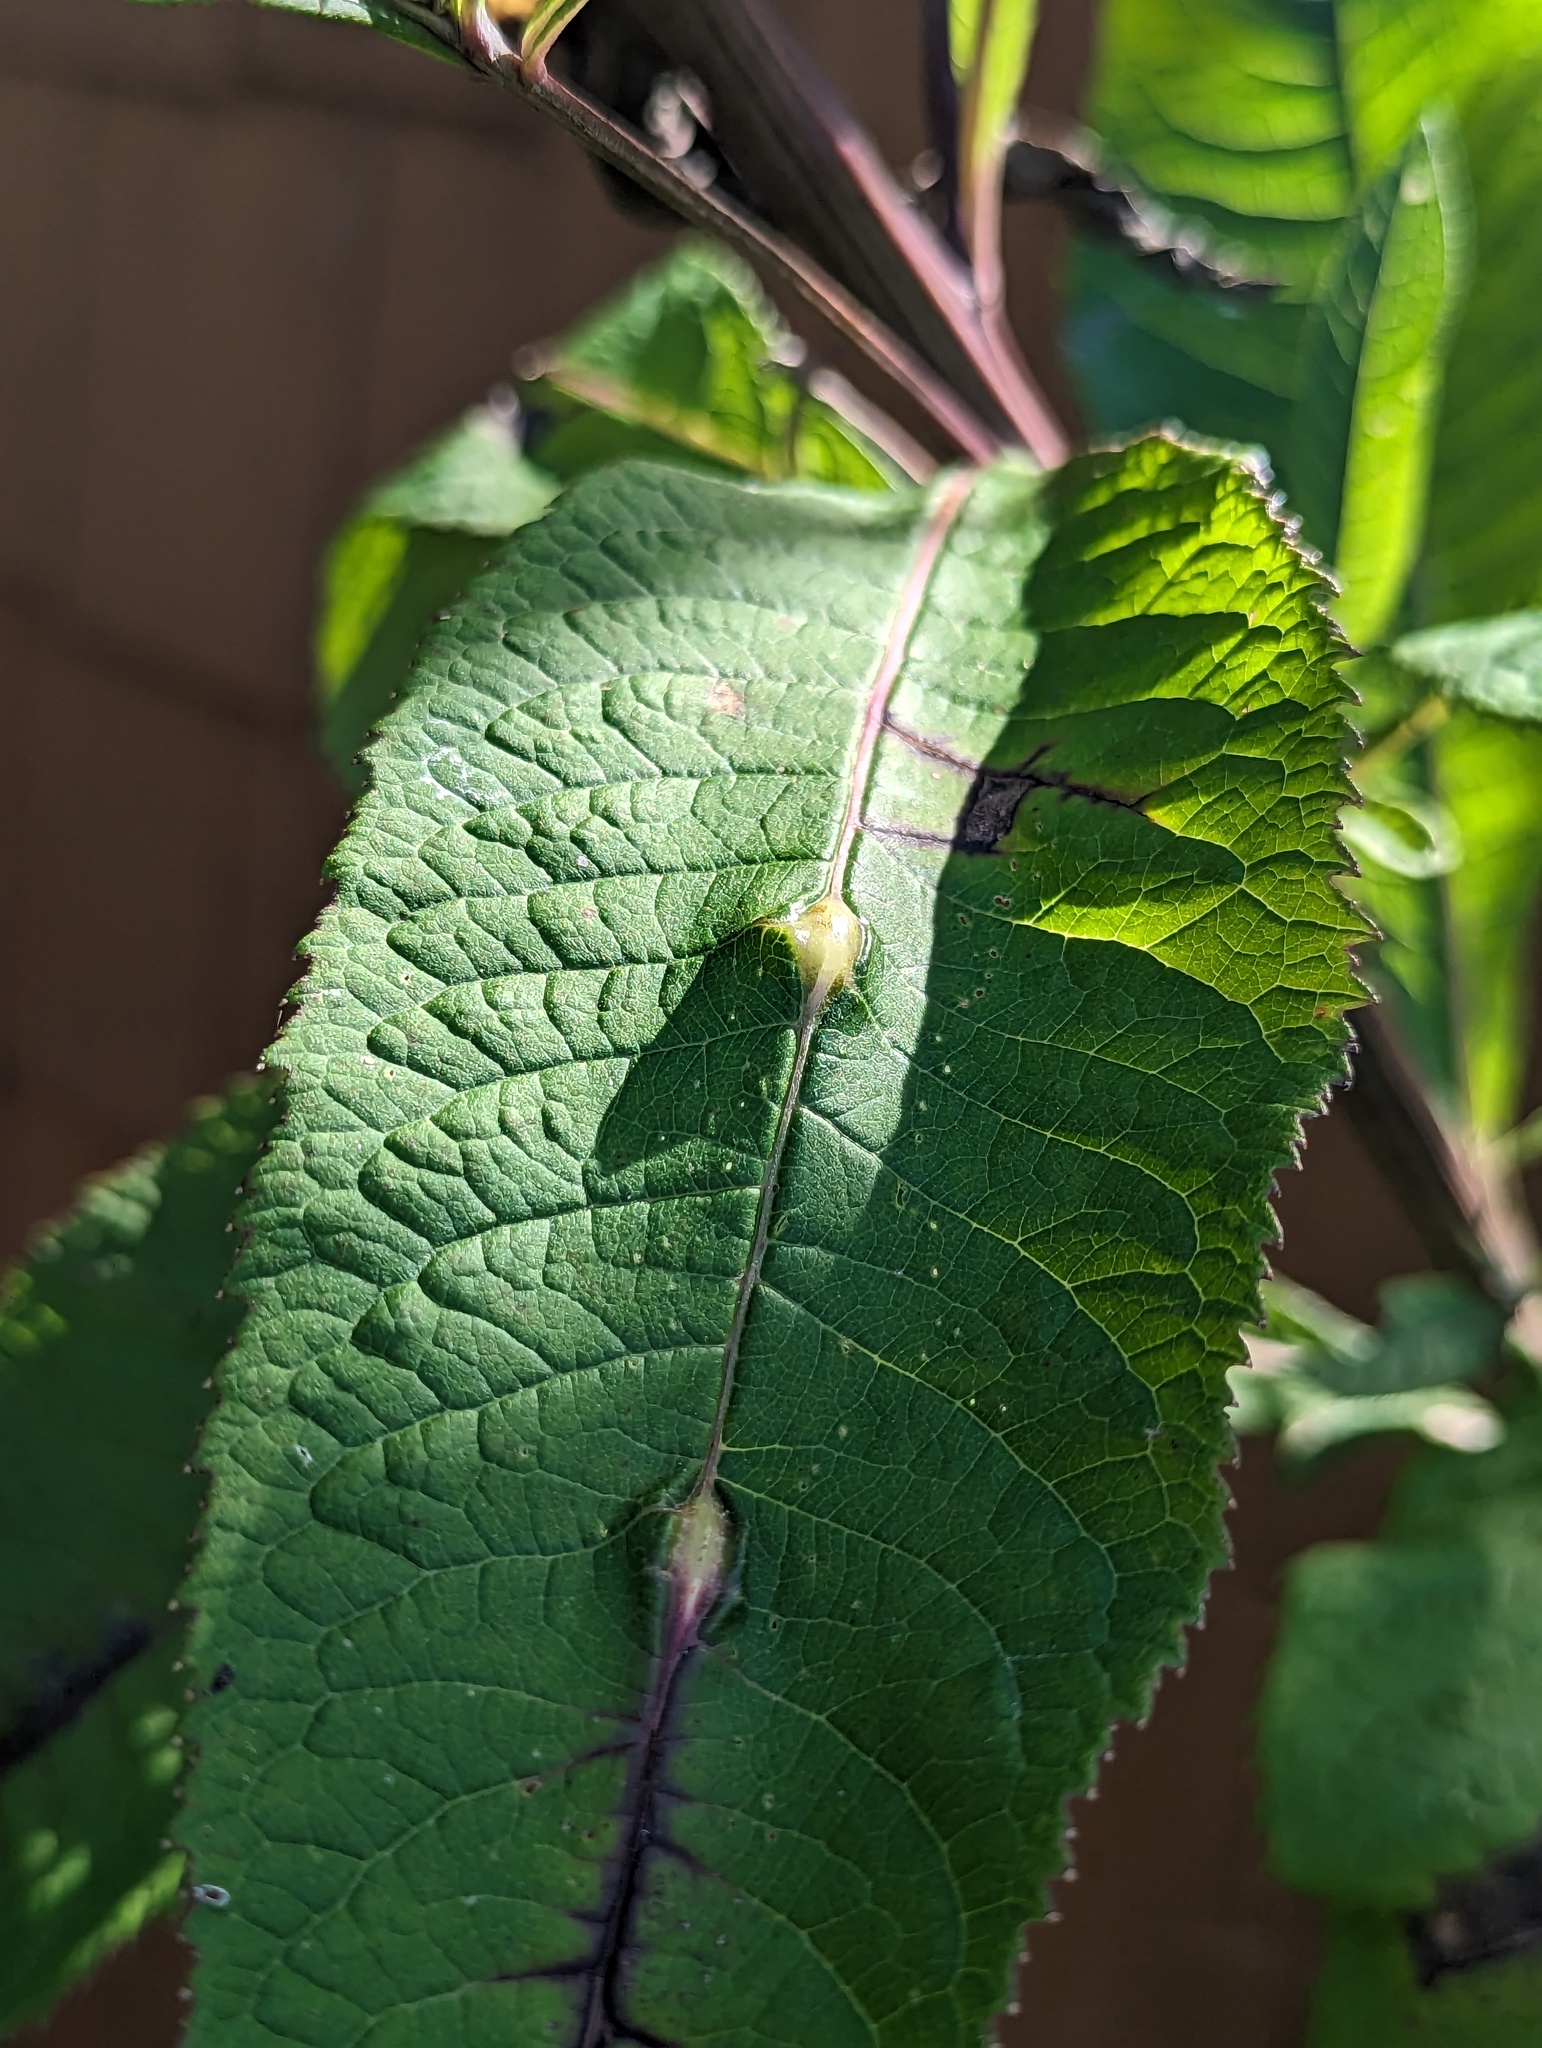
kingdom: Animalia
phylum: Arthropoda
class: Insecta
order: Diptera
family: Cecidomyiidae
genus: Neolasioptera
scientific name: Neolasioptera vernoniae
